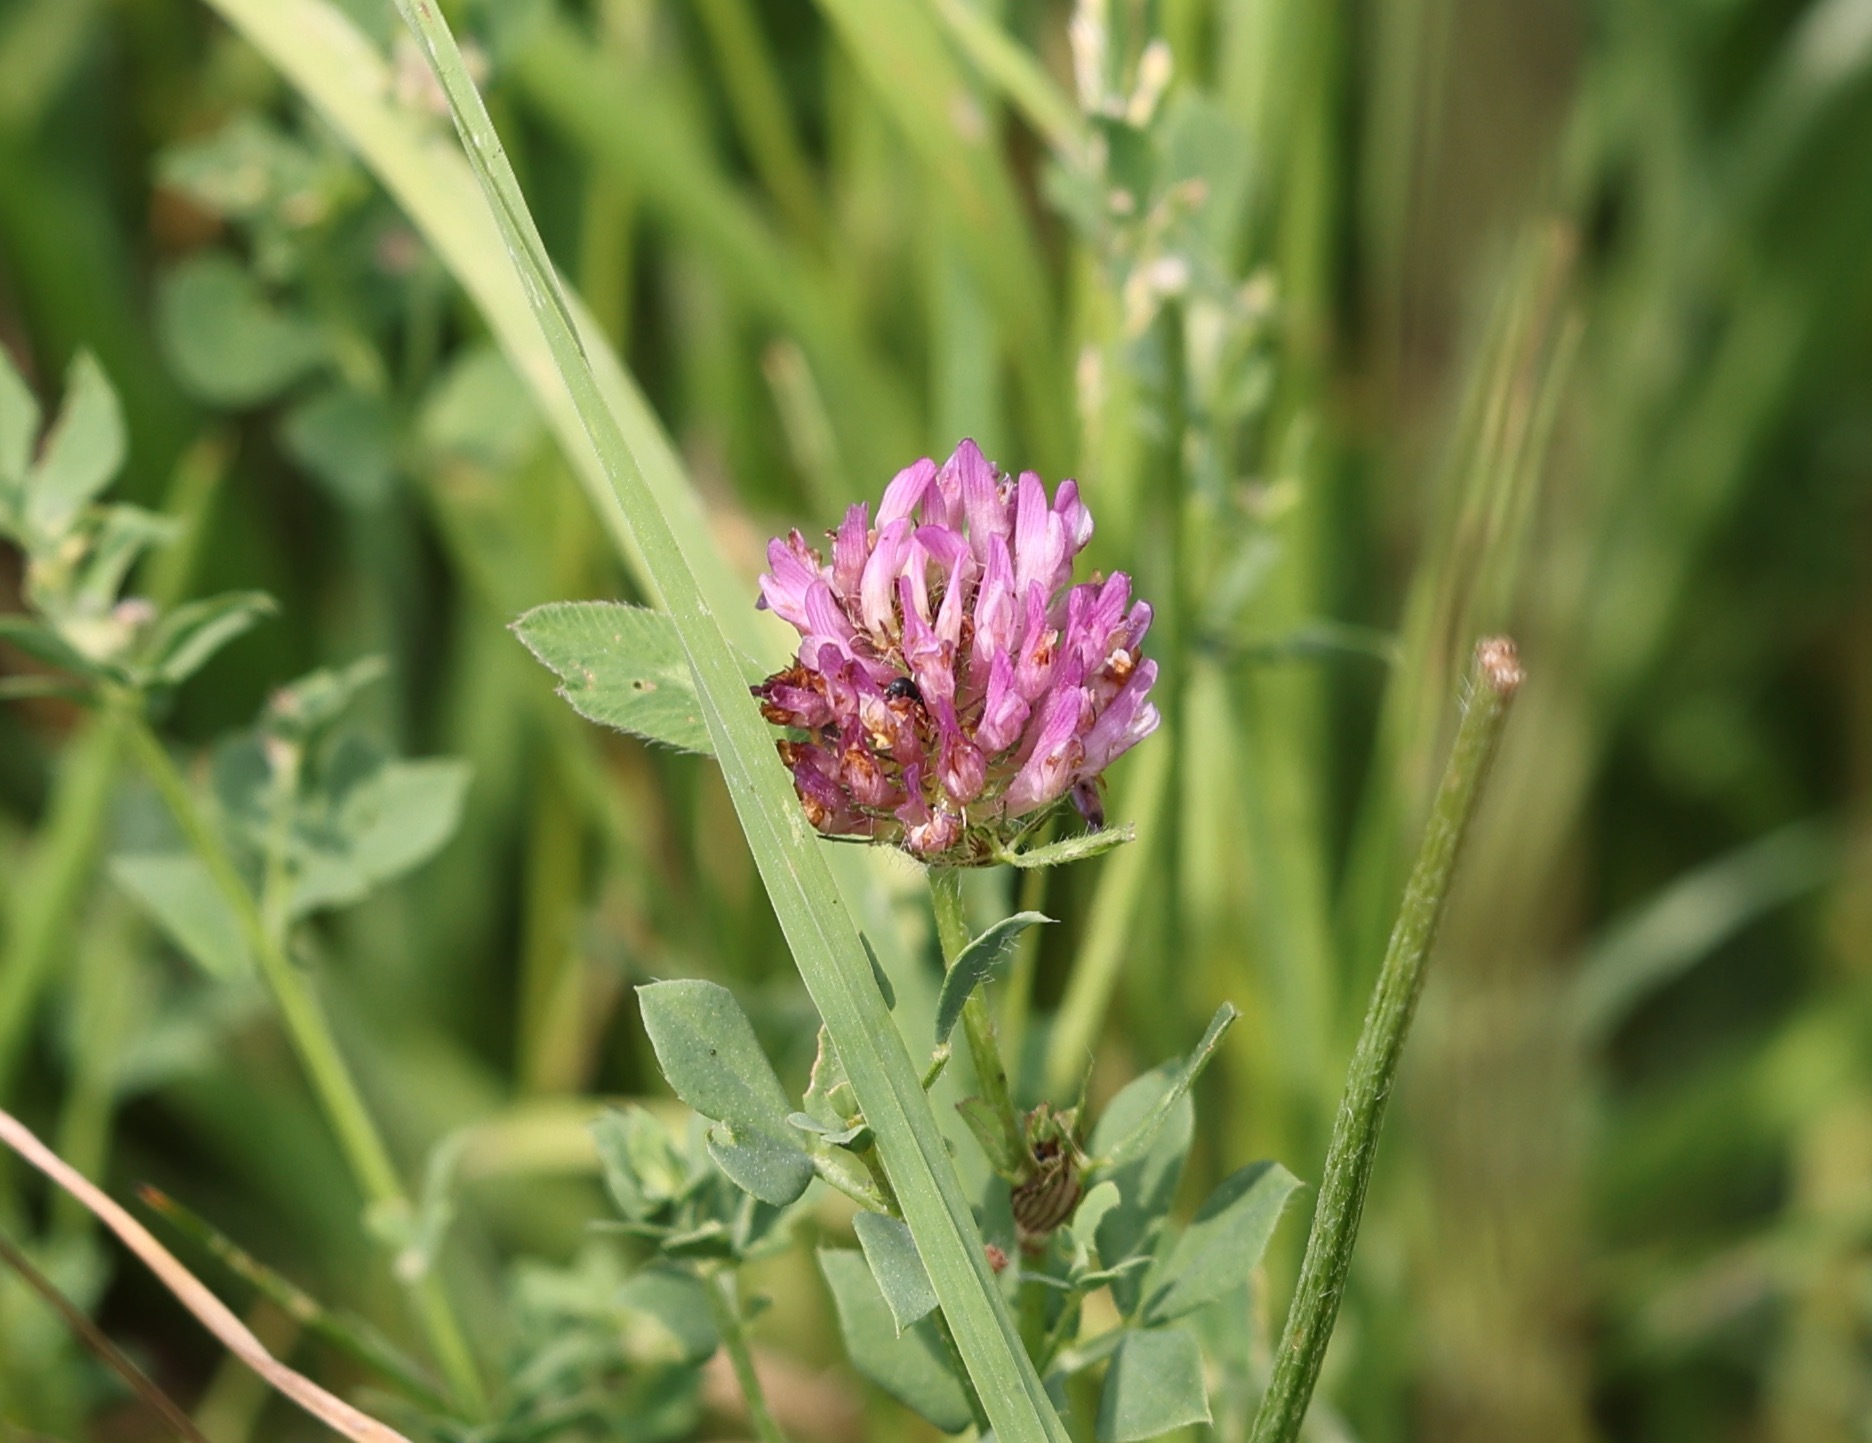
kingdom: Plantae
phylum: Tracheophyta
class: Magnoliopsida
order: Fabales
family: Fabaceae
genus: Trifolium
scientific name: Trifolium pratense
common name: Red clover
